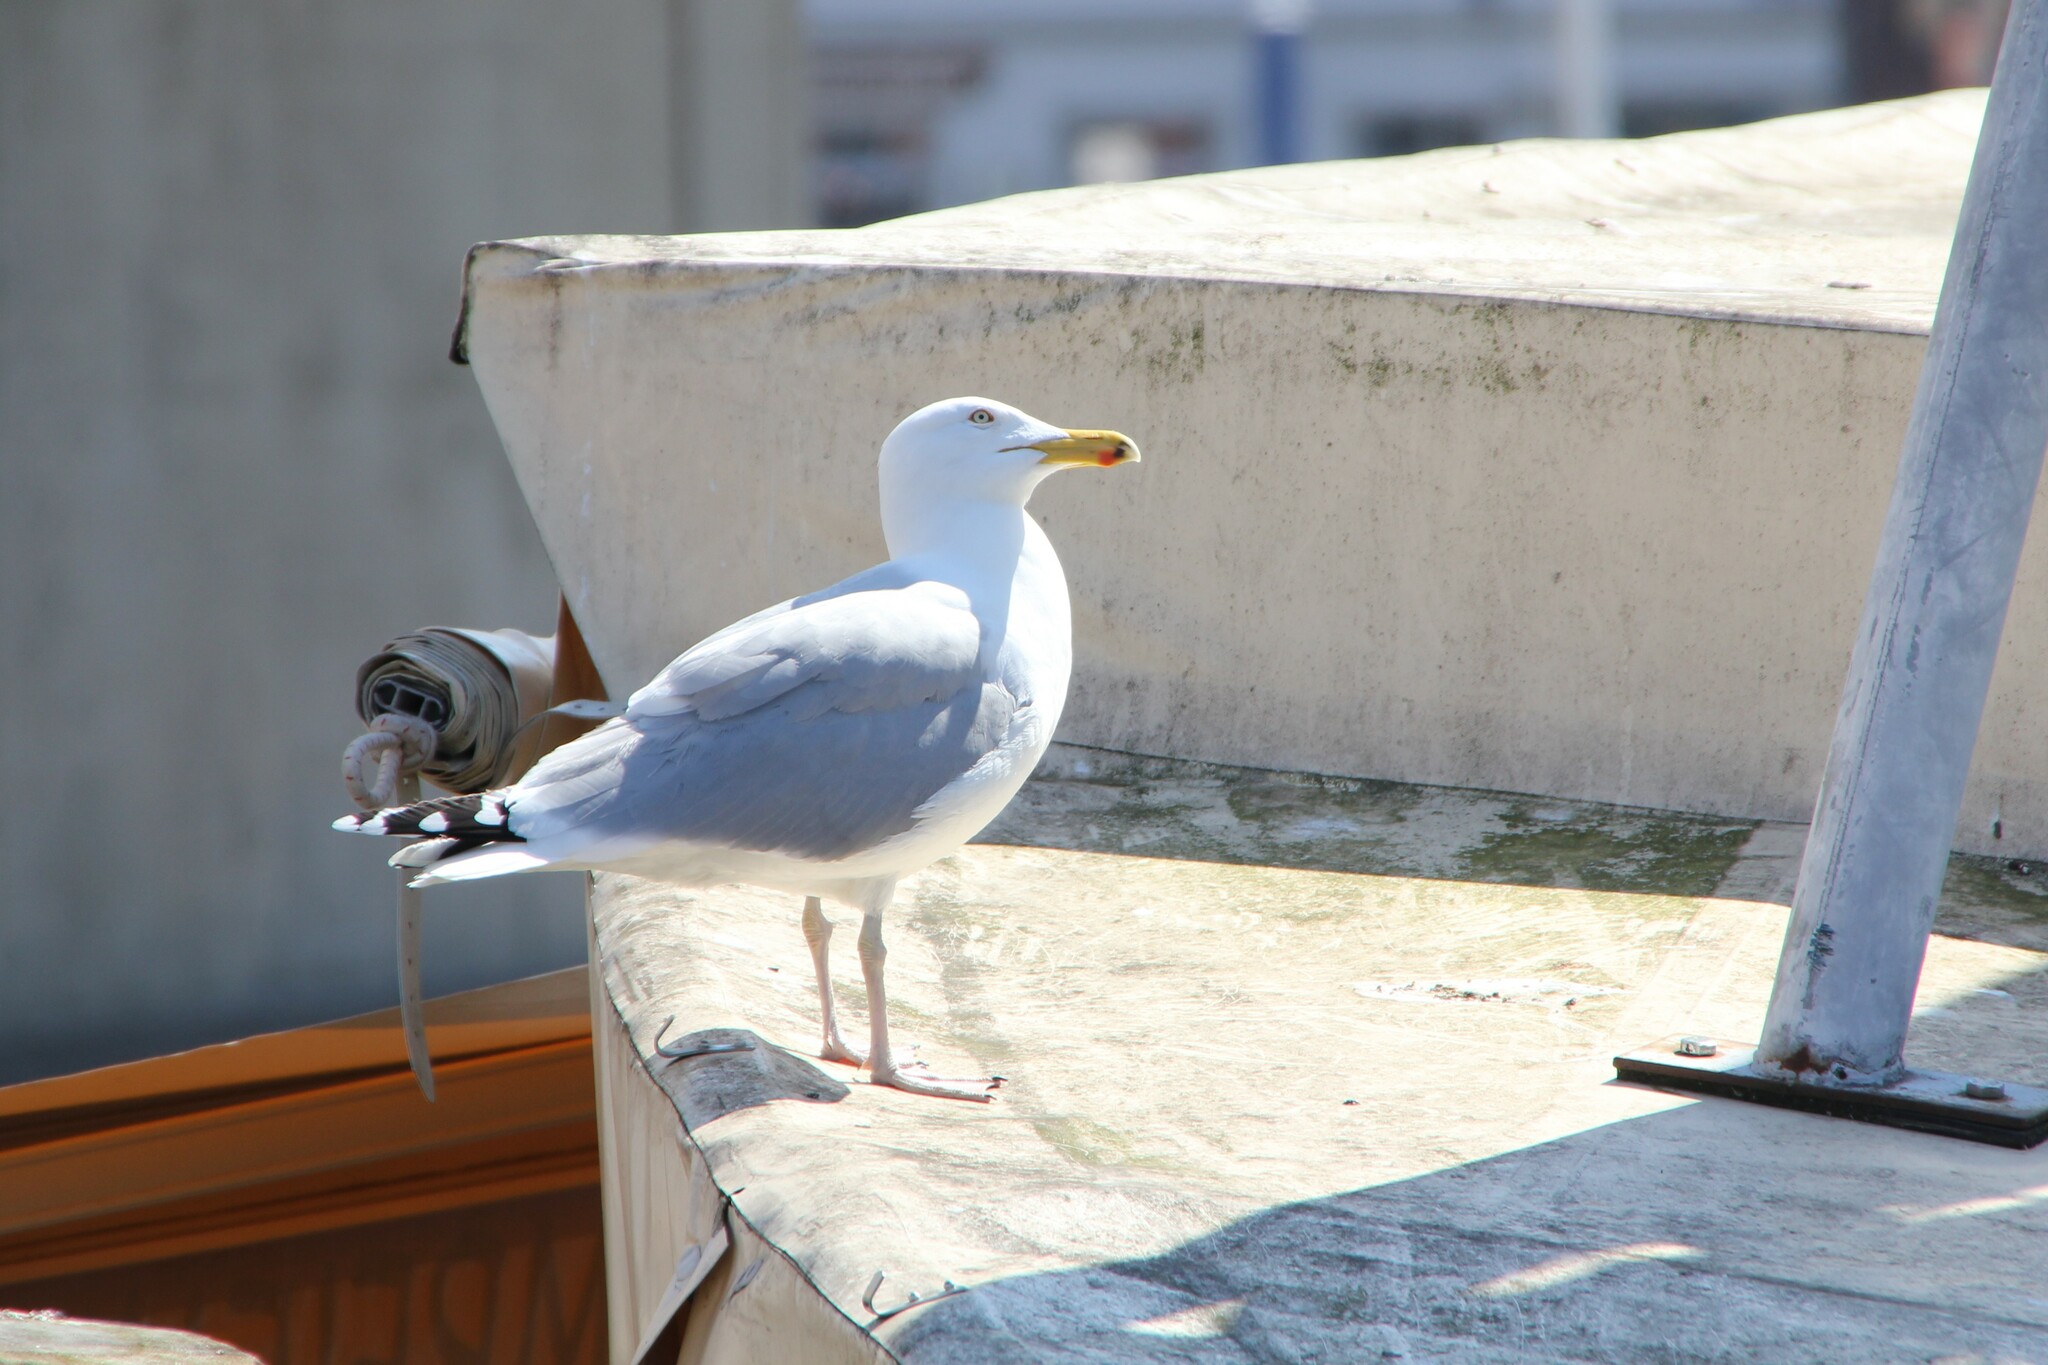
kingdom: Animalia
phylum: Chordata
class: Aves
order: Charadriiformes
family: Laridae
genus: Larus
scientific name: Larus argentatus
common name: Herring gull
